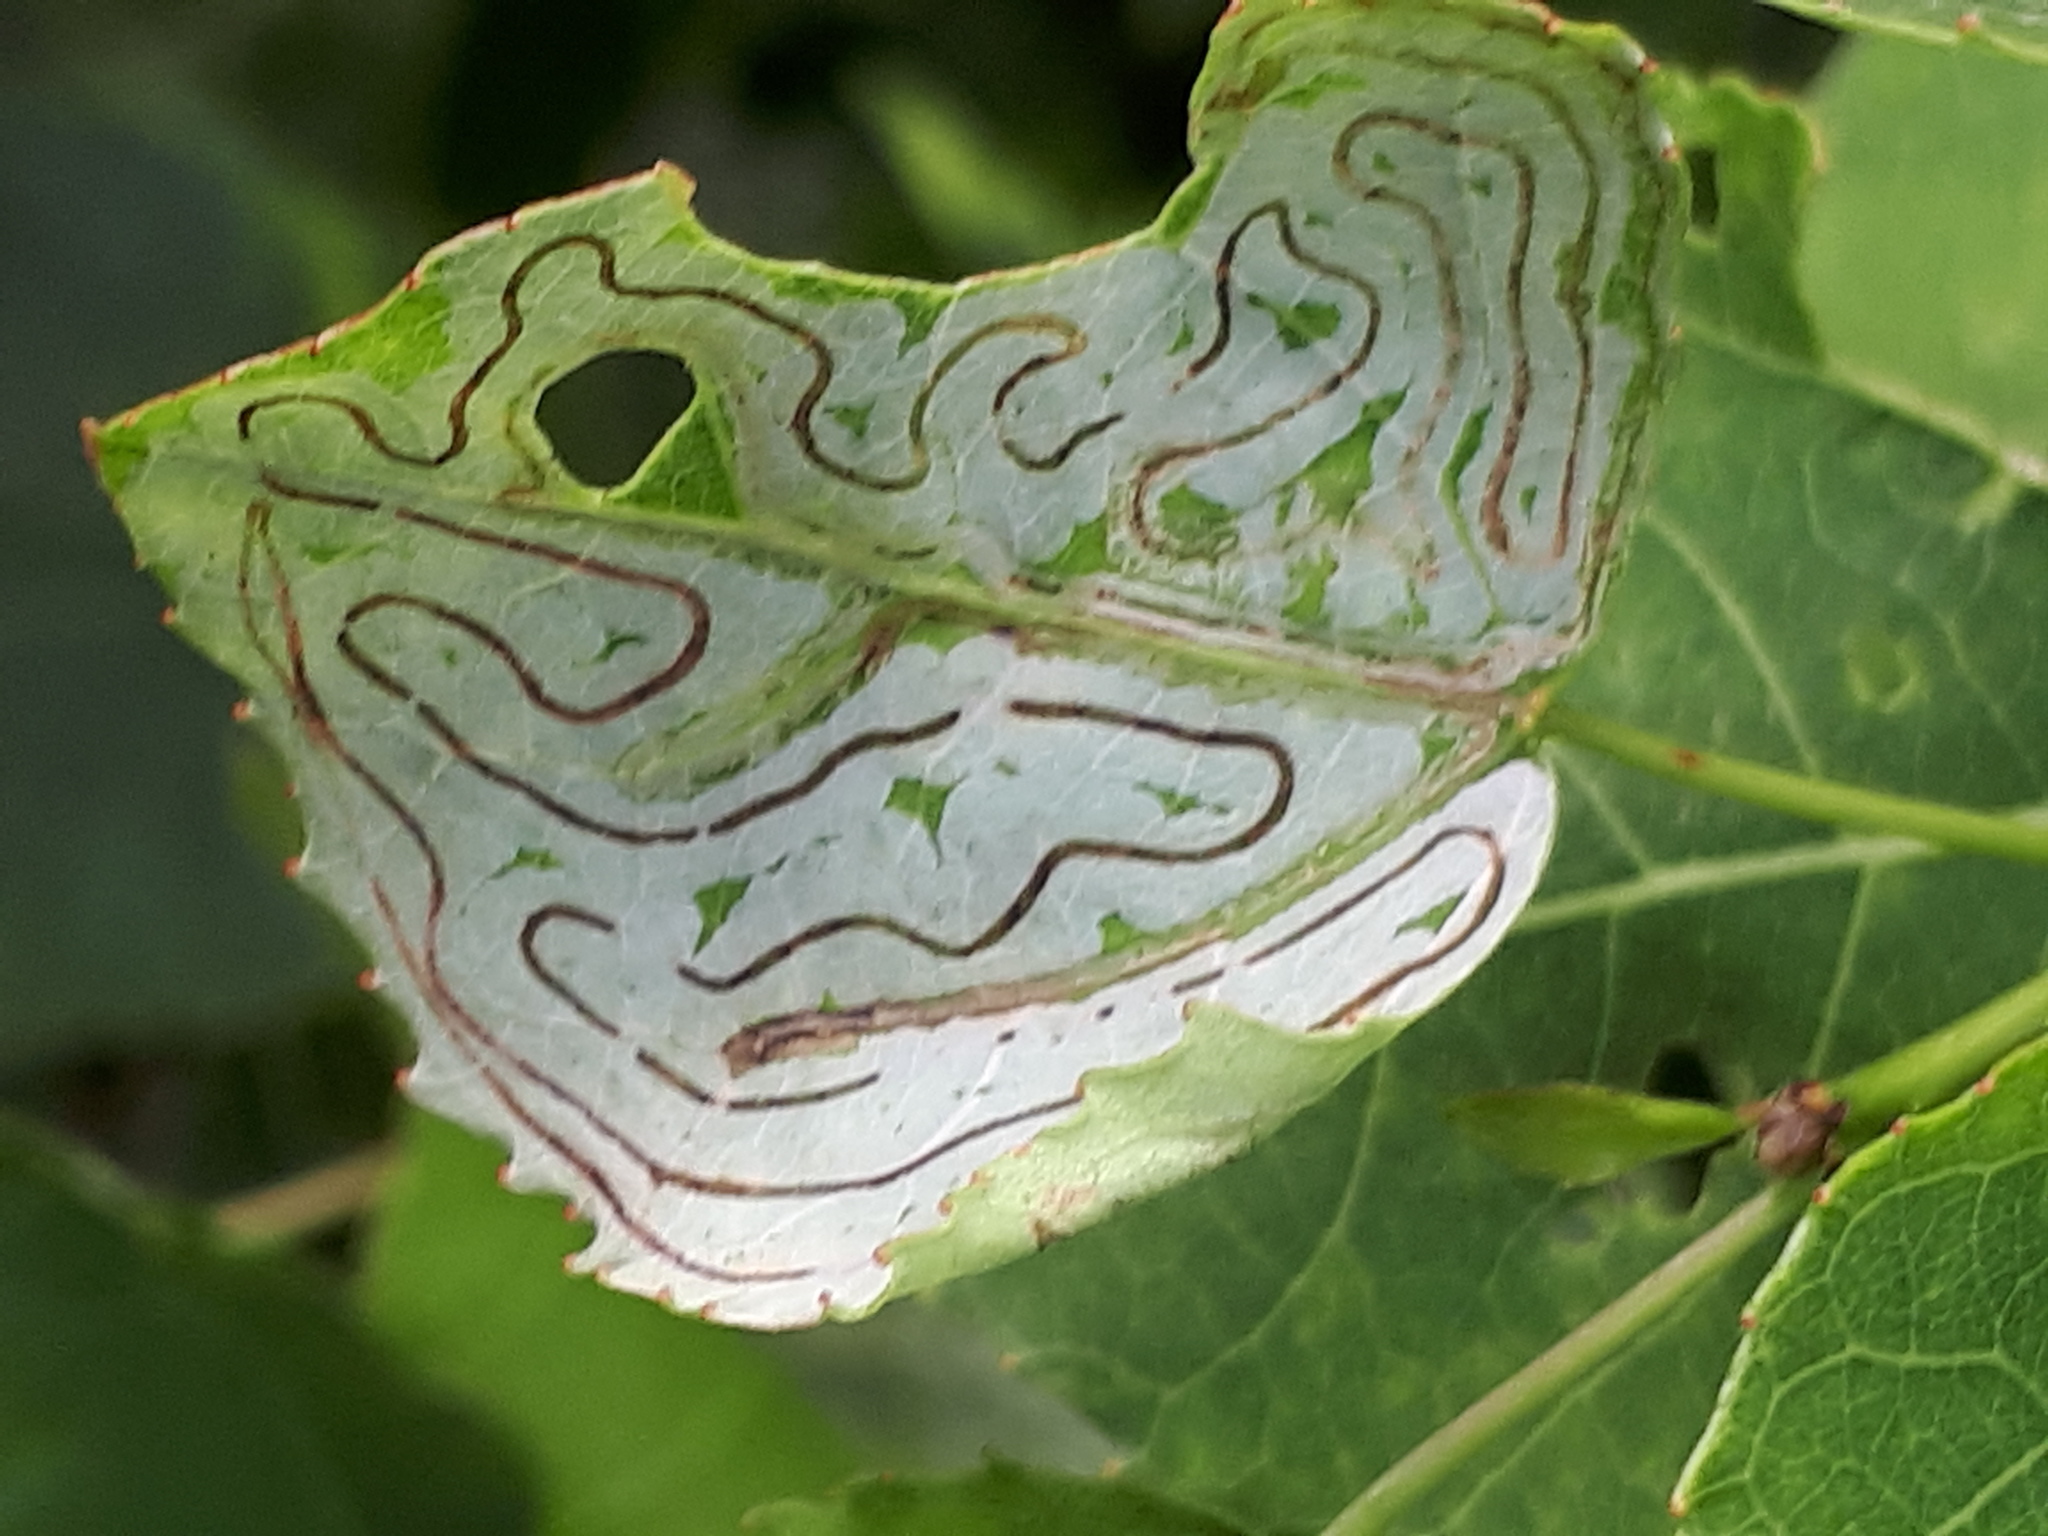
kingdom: Animalia
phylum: Arthropoda
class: Insecta
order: Lepidoptera
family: Gracillariidae
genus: Phyllocnistis
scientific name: Phyllocnistis labyrinthella
